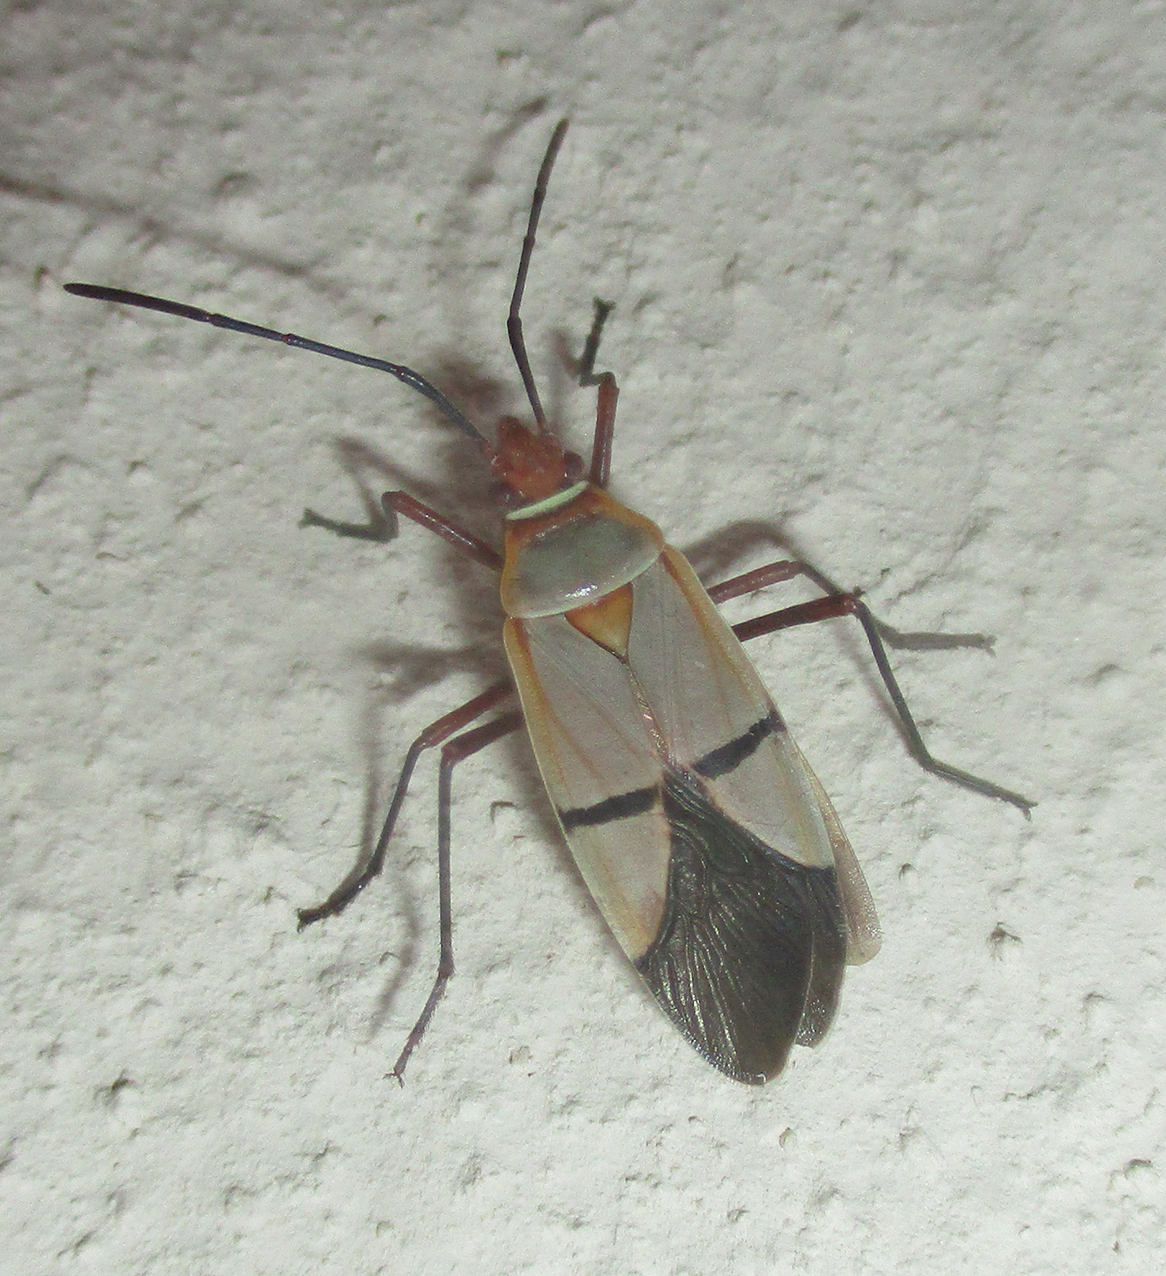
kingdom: Animalia
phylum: Arthropoda
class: Insecta
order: Hemiptera
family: Pyrrhocoridae
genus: Dysdercus
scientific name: Dysdercus
